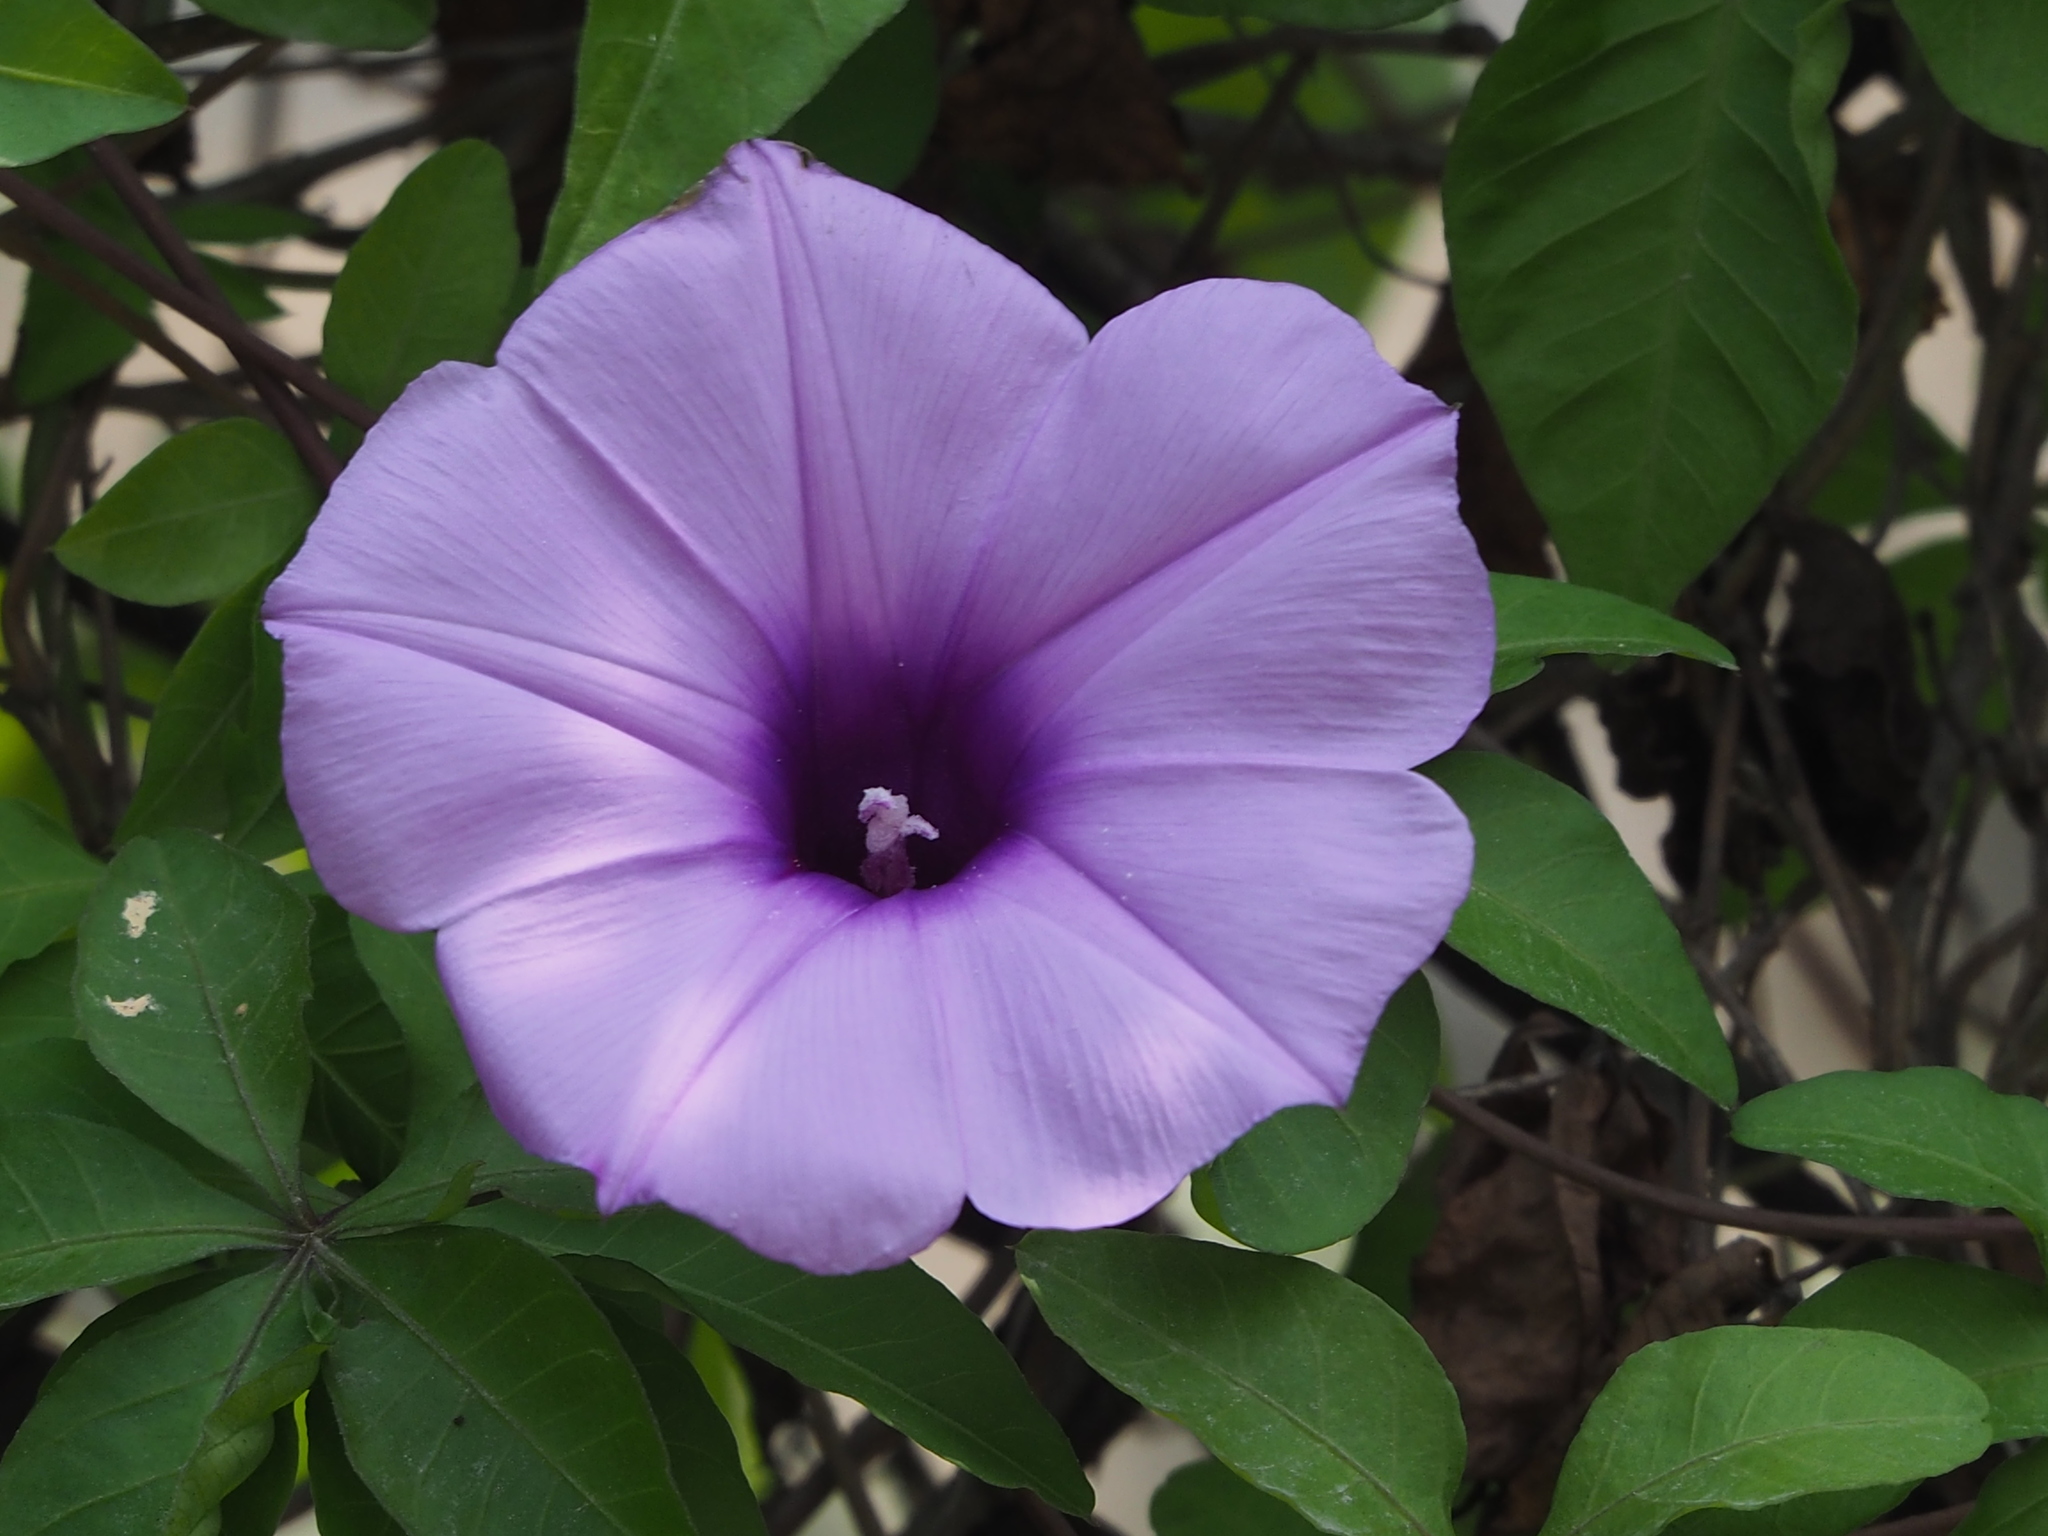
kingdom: Plantae
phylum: Tracheophyta
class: Magnoliopsida
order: Solanales
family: Convolvulaceae
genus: Ipomoea
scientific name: Ipomoea cairica
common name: Mile a minute vine
